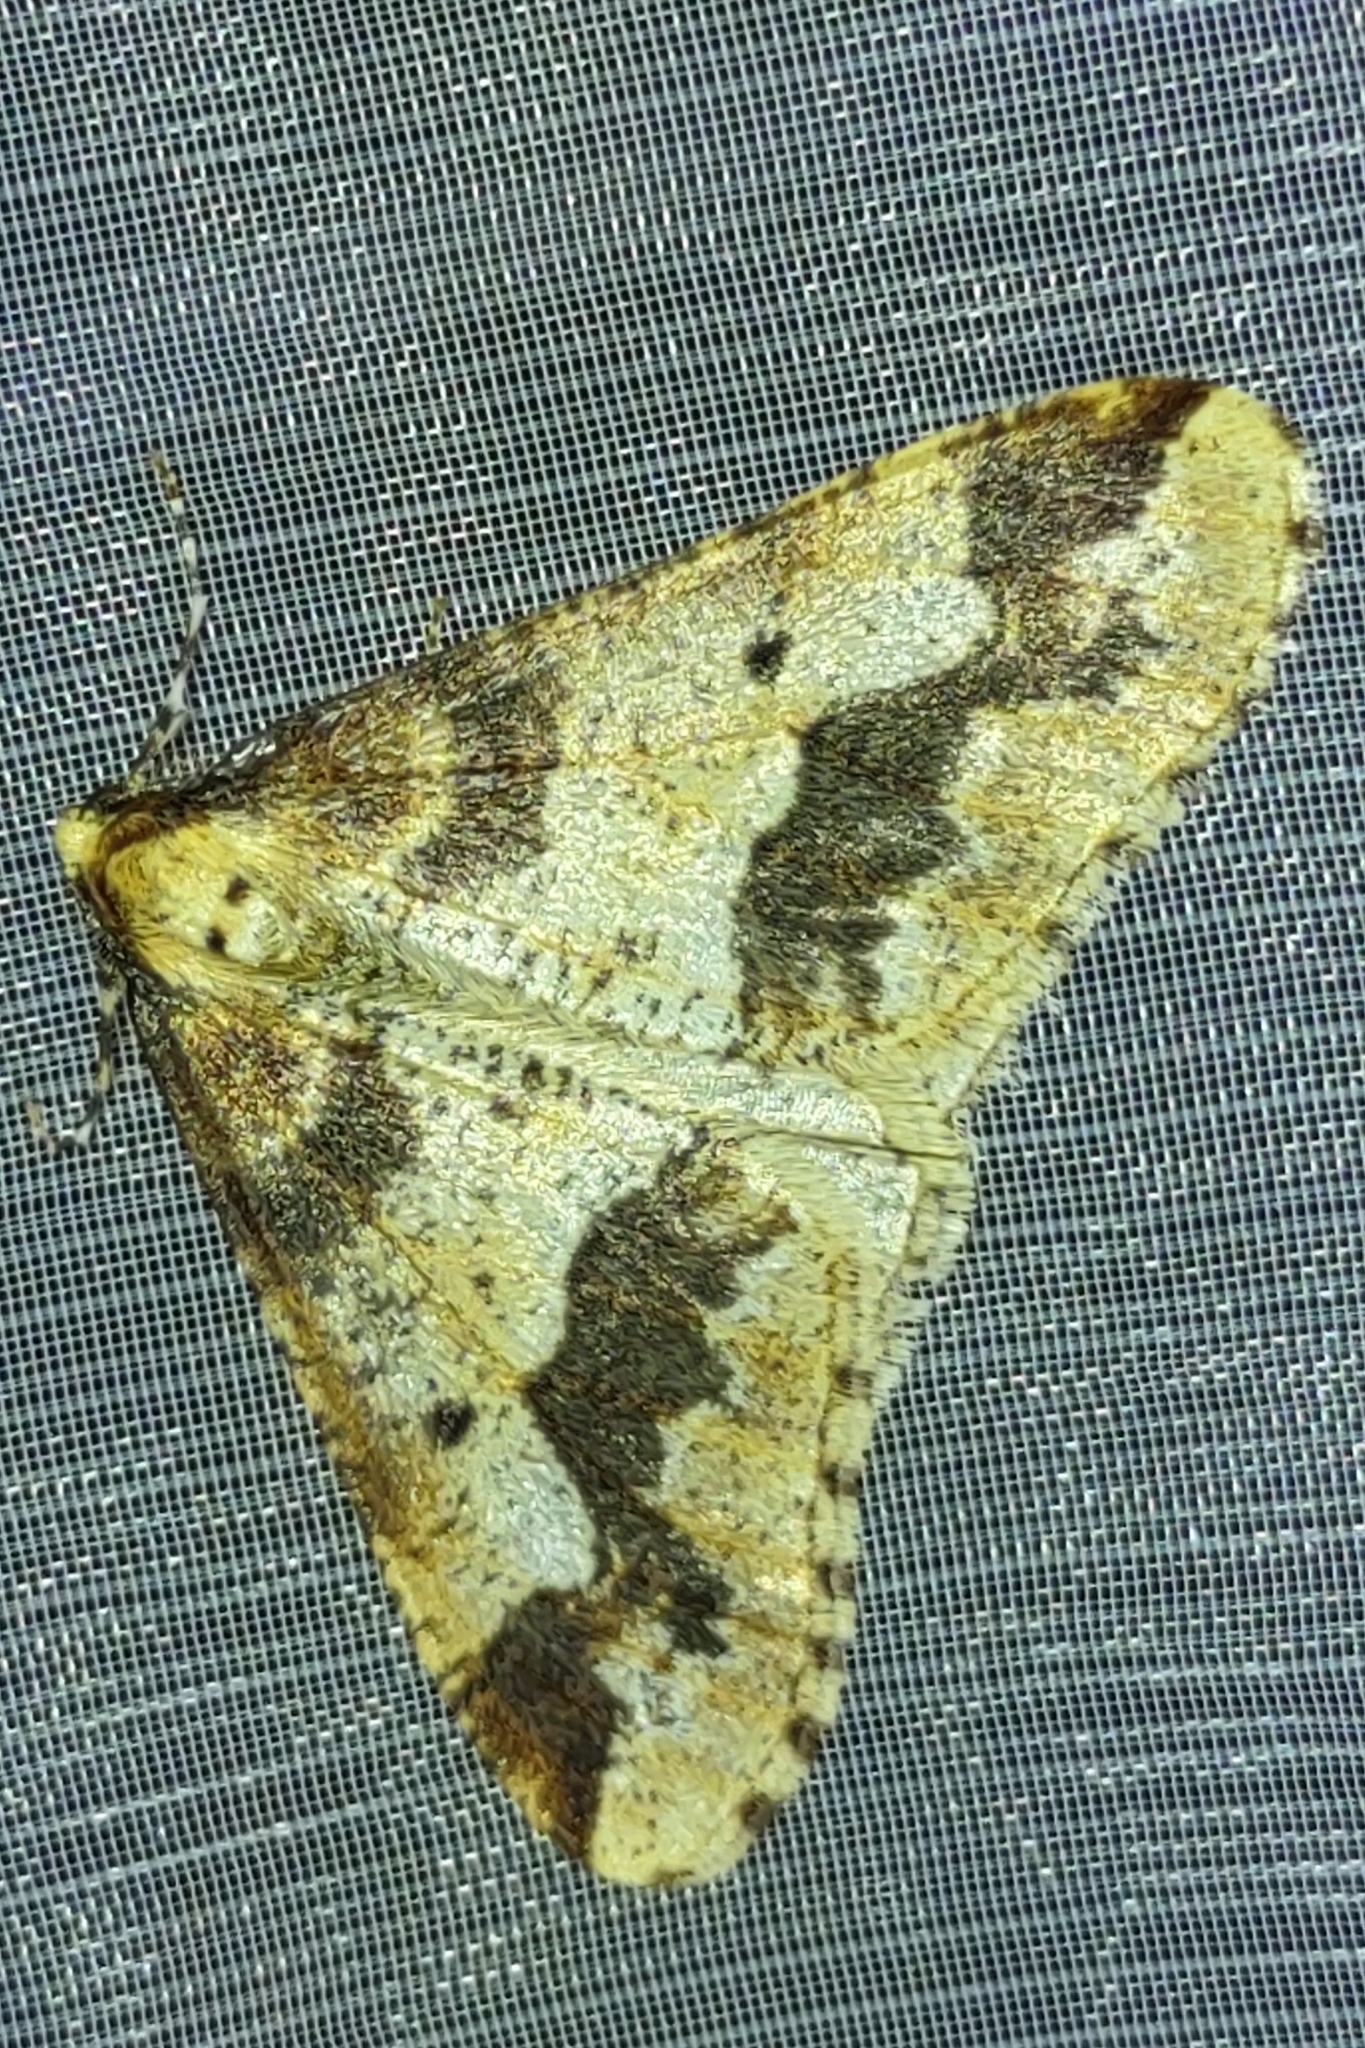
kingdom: Animalia
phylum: Arthropoda
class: Insecta
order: Lepidoptera
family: Geometridae
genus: Erannis
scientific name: Erannis defoliaria
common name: Mottled umber
